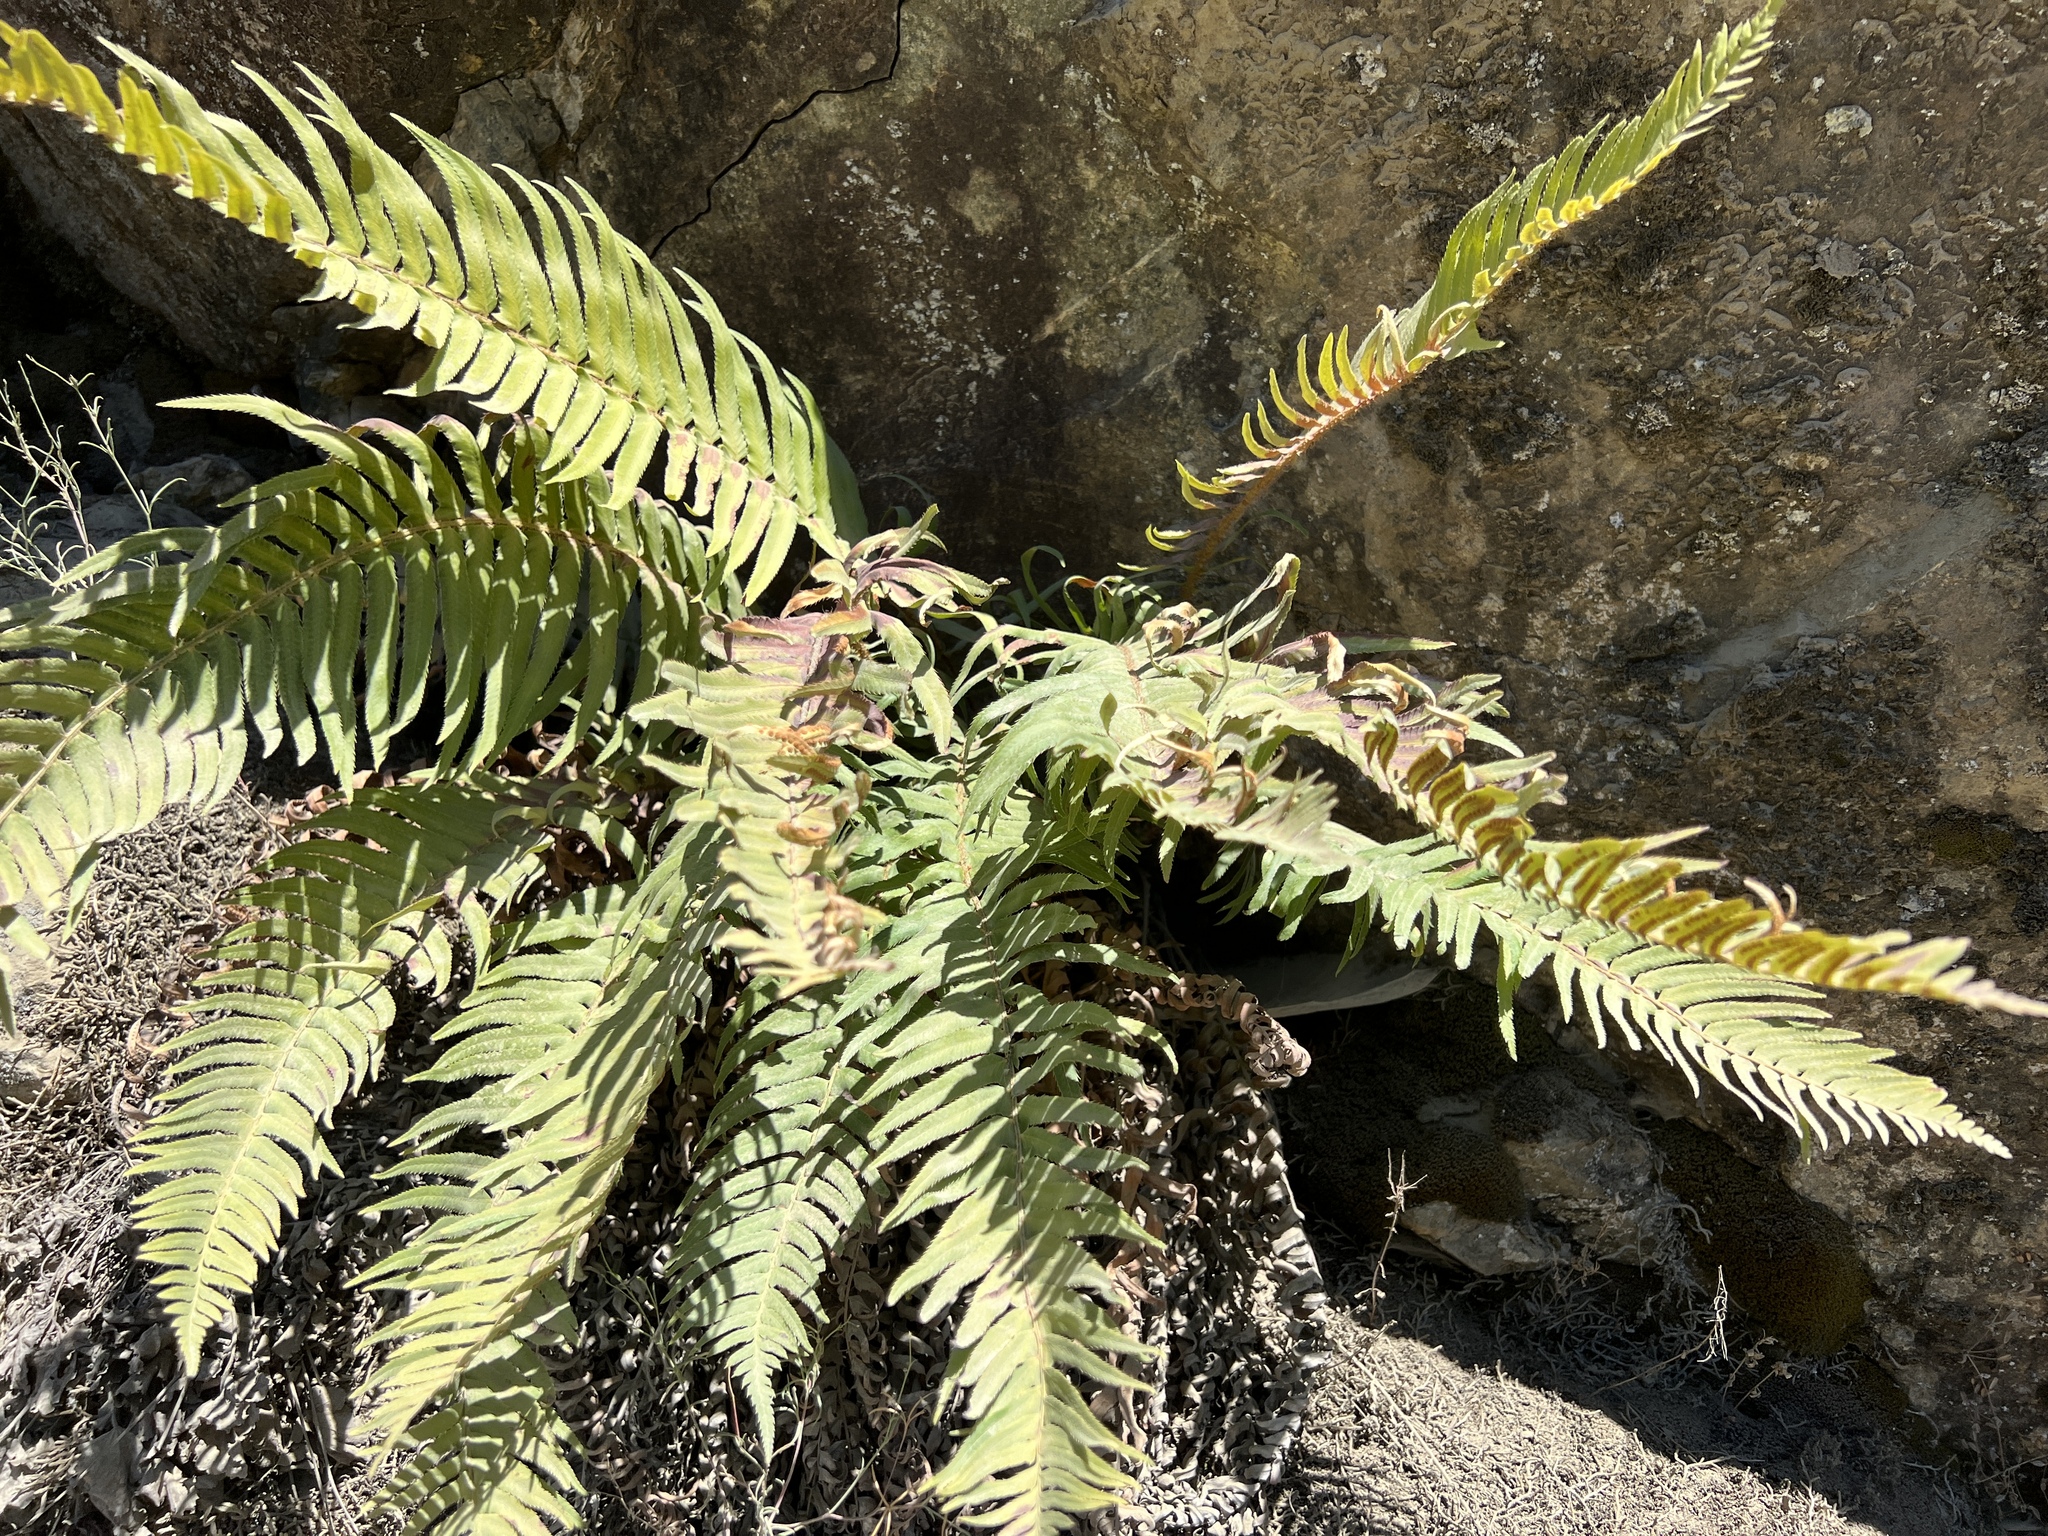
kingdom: Plantae
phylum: Tracheophyta
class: Polypodiopsida
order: Polypodiales
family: Dryopteridaceae
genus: Polystichum
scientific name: Polystichum munitum
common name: Western sword-fern
